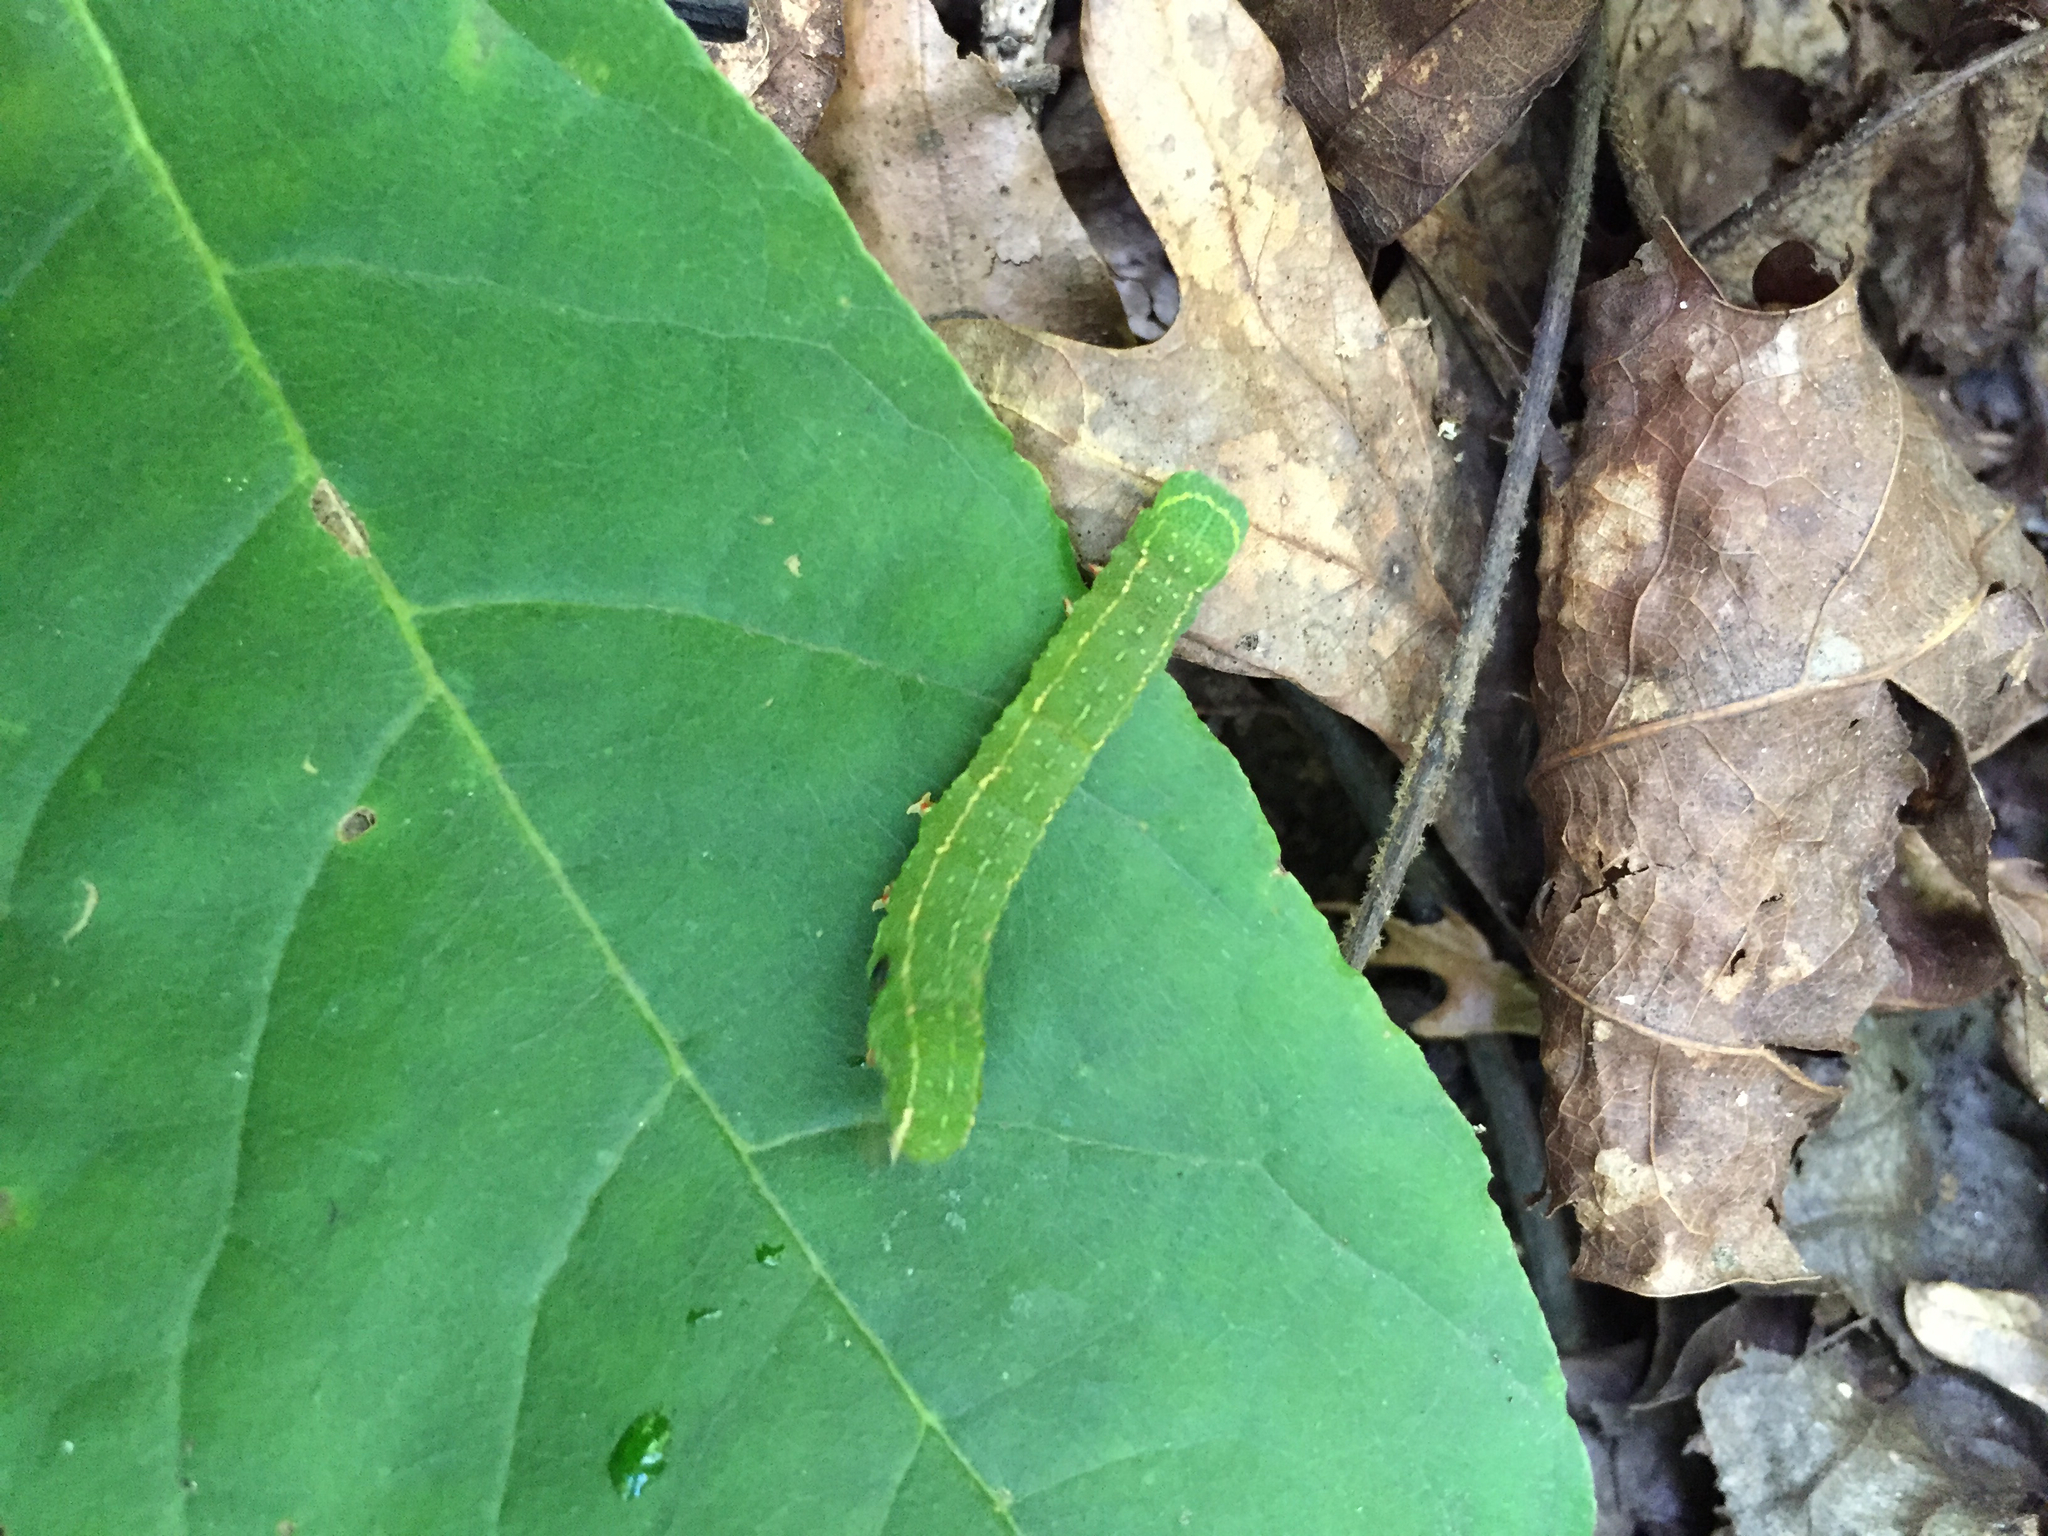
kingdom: Animalia
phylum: Arthropoda
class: Insecta
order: Lepidoptera
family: Erebidae
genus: Panopoda
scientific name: Panopoda rufimargo
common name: Red-lined panopoda moth
